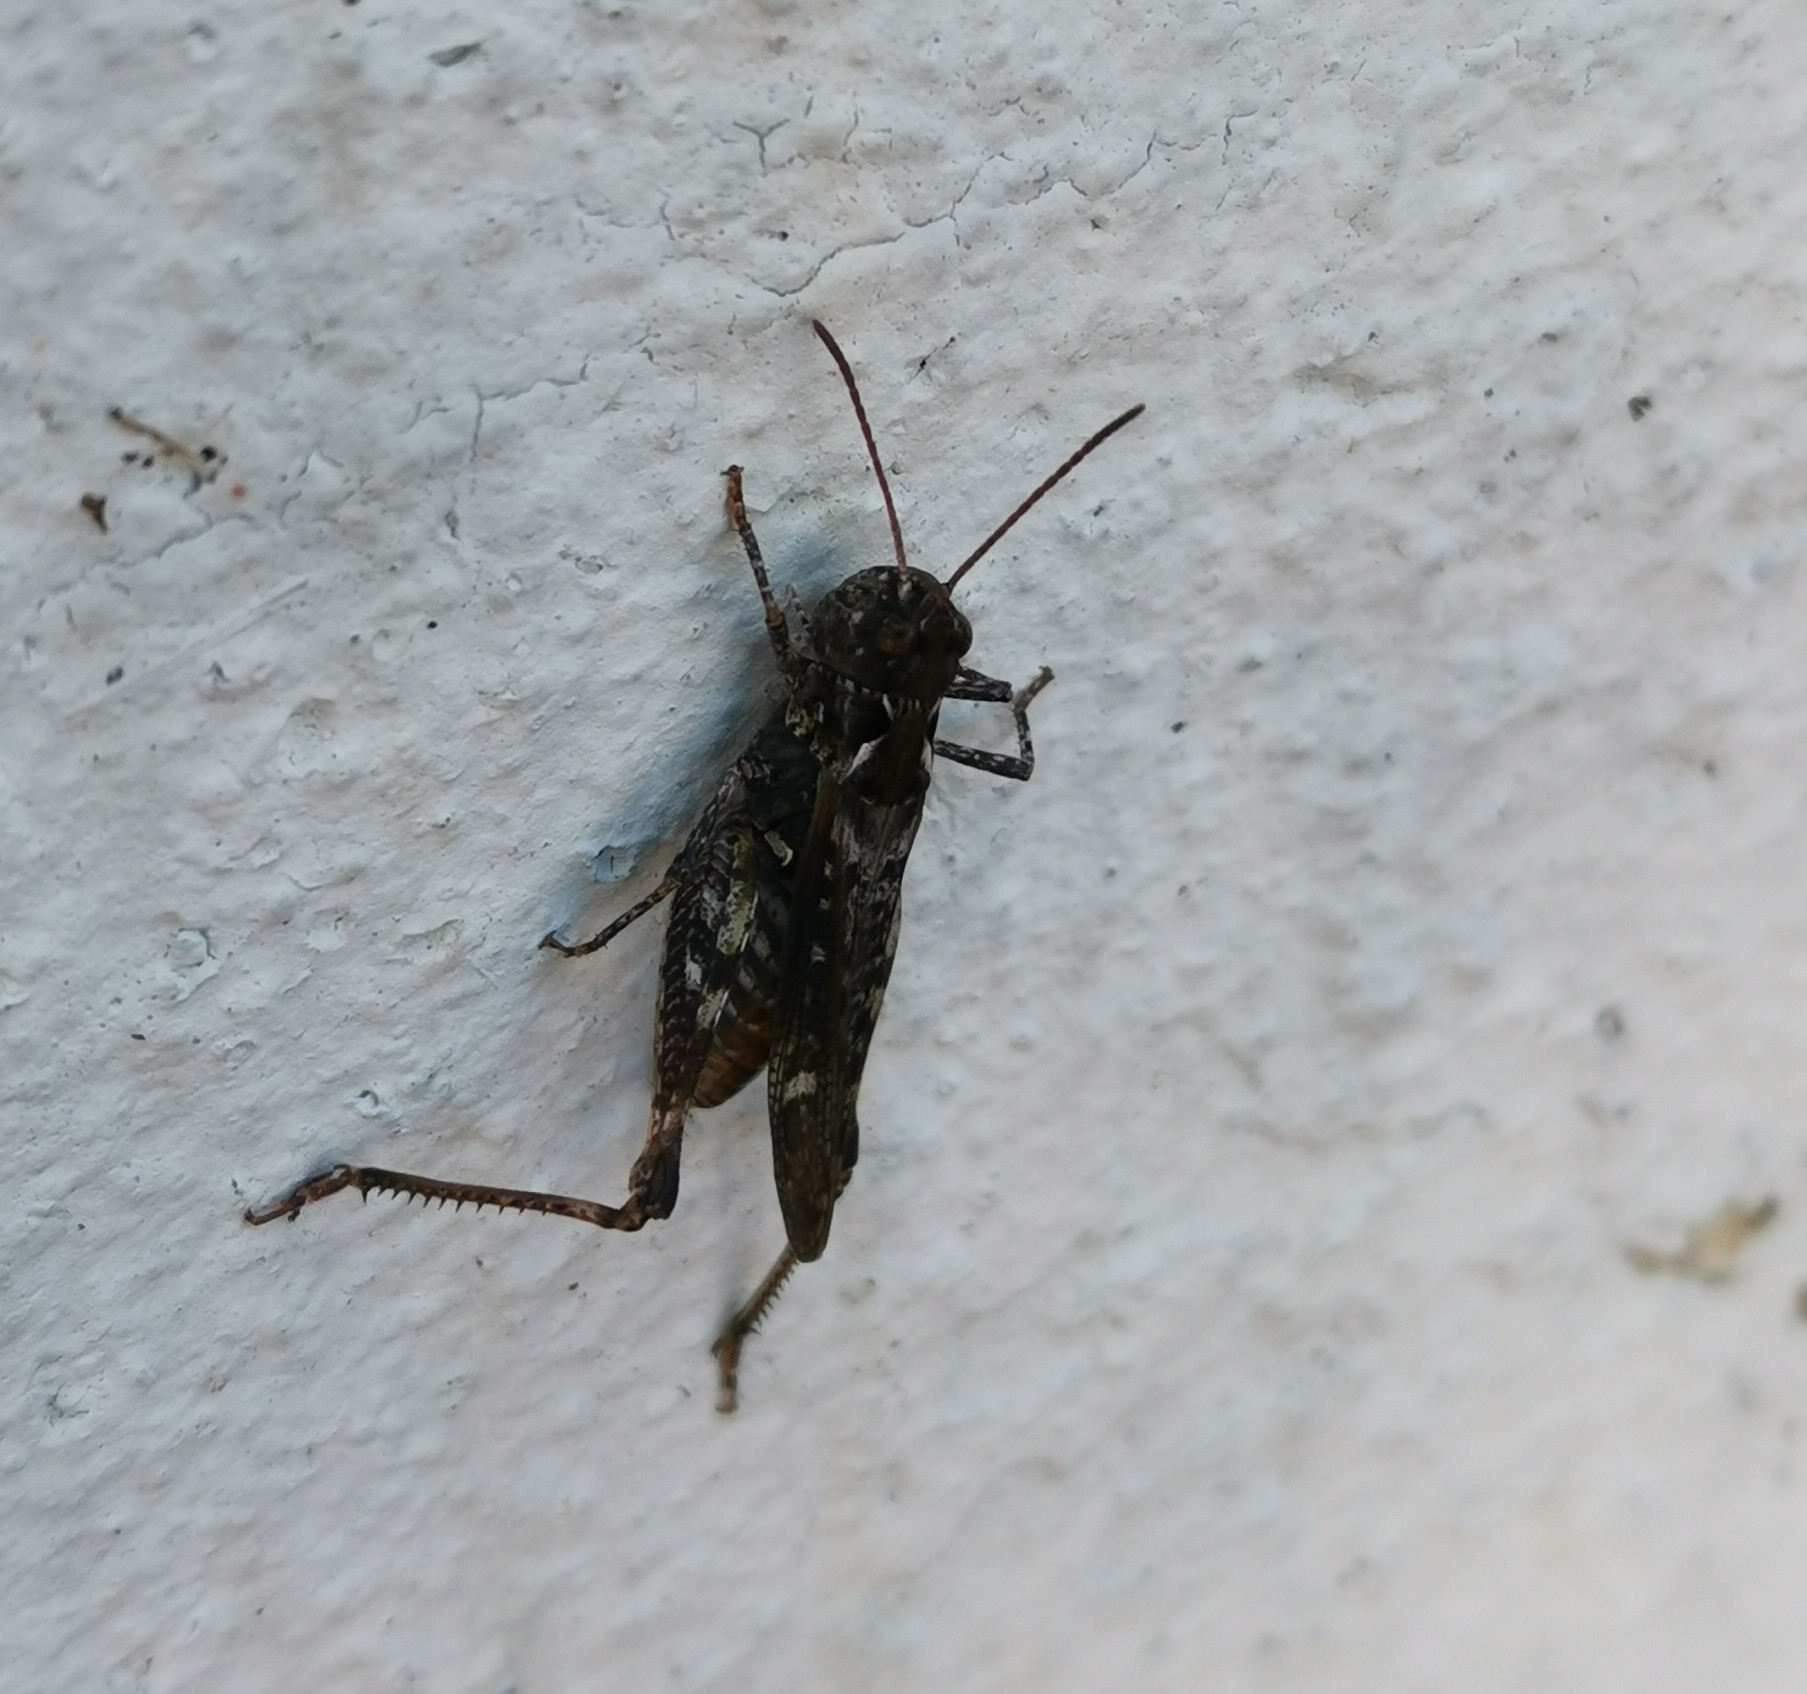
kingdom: Animalia
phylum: Arthropoda
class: Insecta
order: Orthoptera
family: Acrididae
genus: Myrmeleotettix
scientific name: Myrmeleotettix maculatus
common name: Mottled grasshopper
